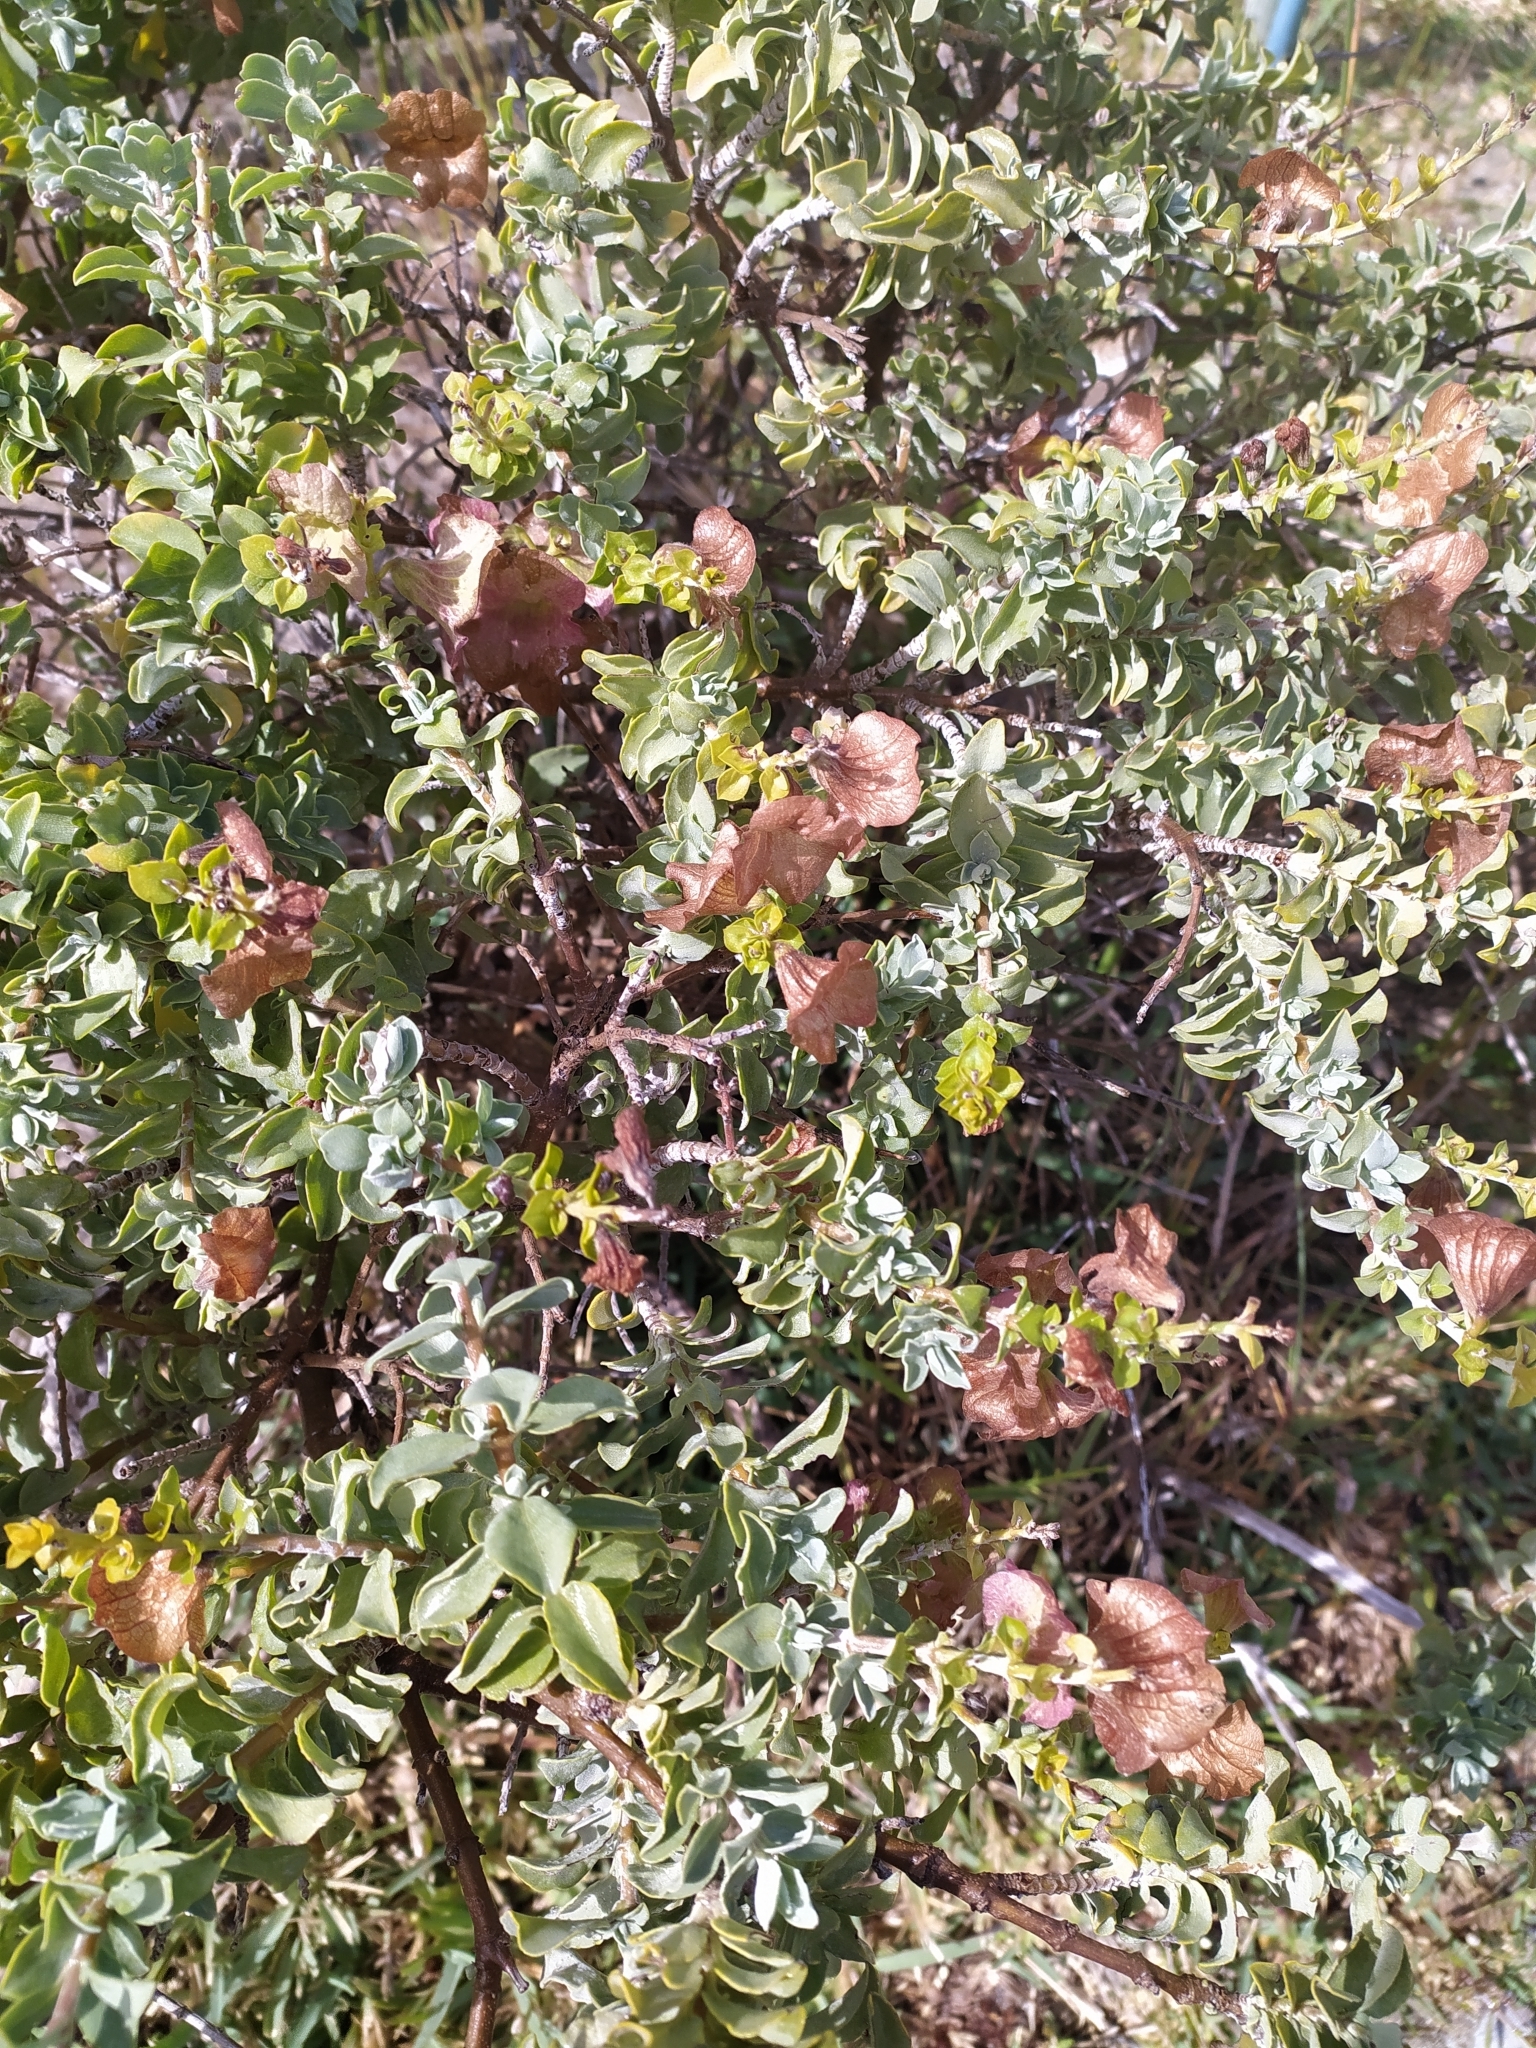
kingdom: Plantae
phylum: Tracheophyta
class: Magnoliopsida
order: Lamiales
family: Lamiaceae
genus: Salvia
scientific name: Salvia aurea
